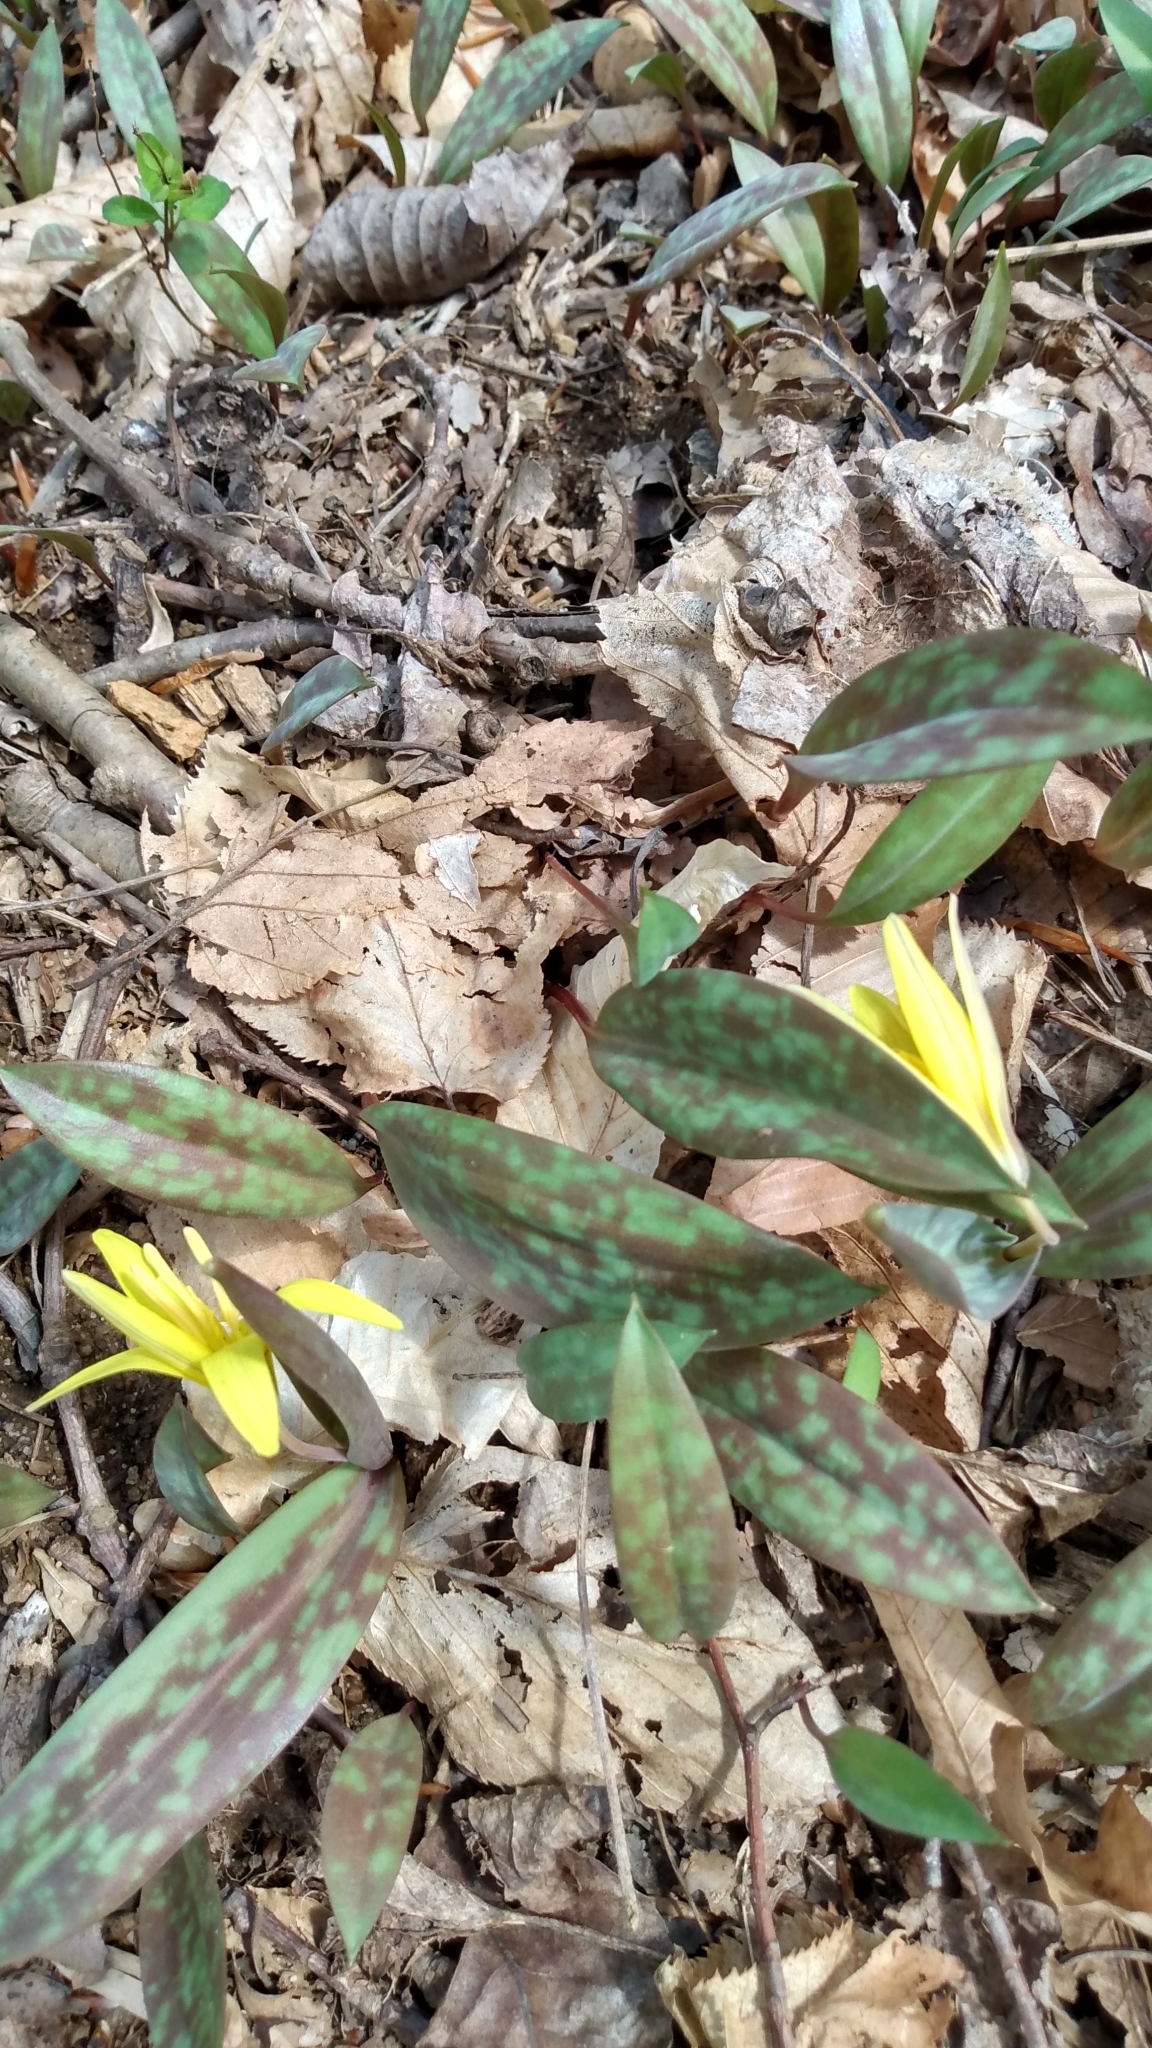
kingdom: Plantae
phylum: Tracheophyta
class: Liliopsida
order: Liliales
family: Liliaceae
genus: Erythronium
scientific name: Erythronium americanum
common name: Yellow adder's-tongue
